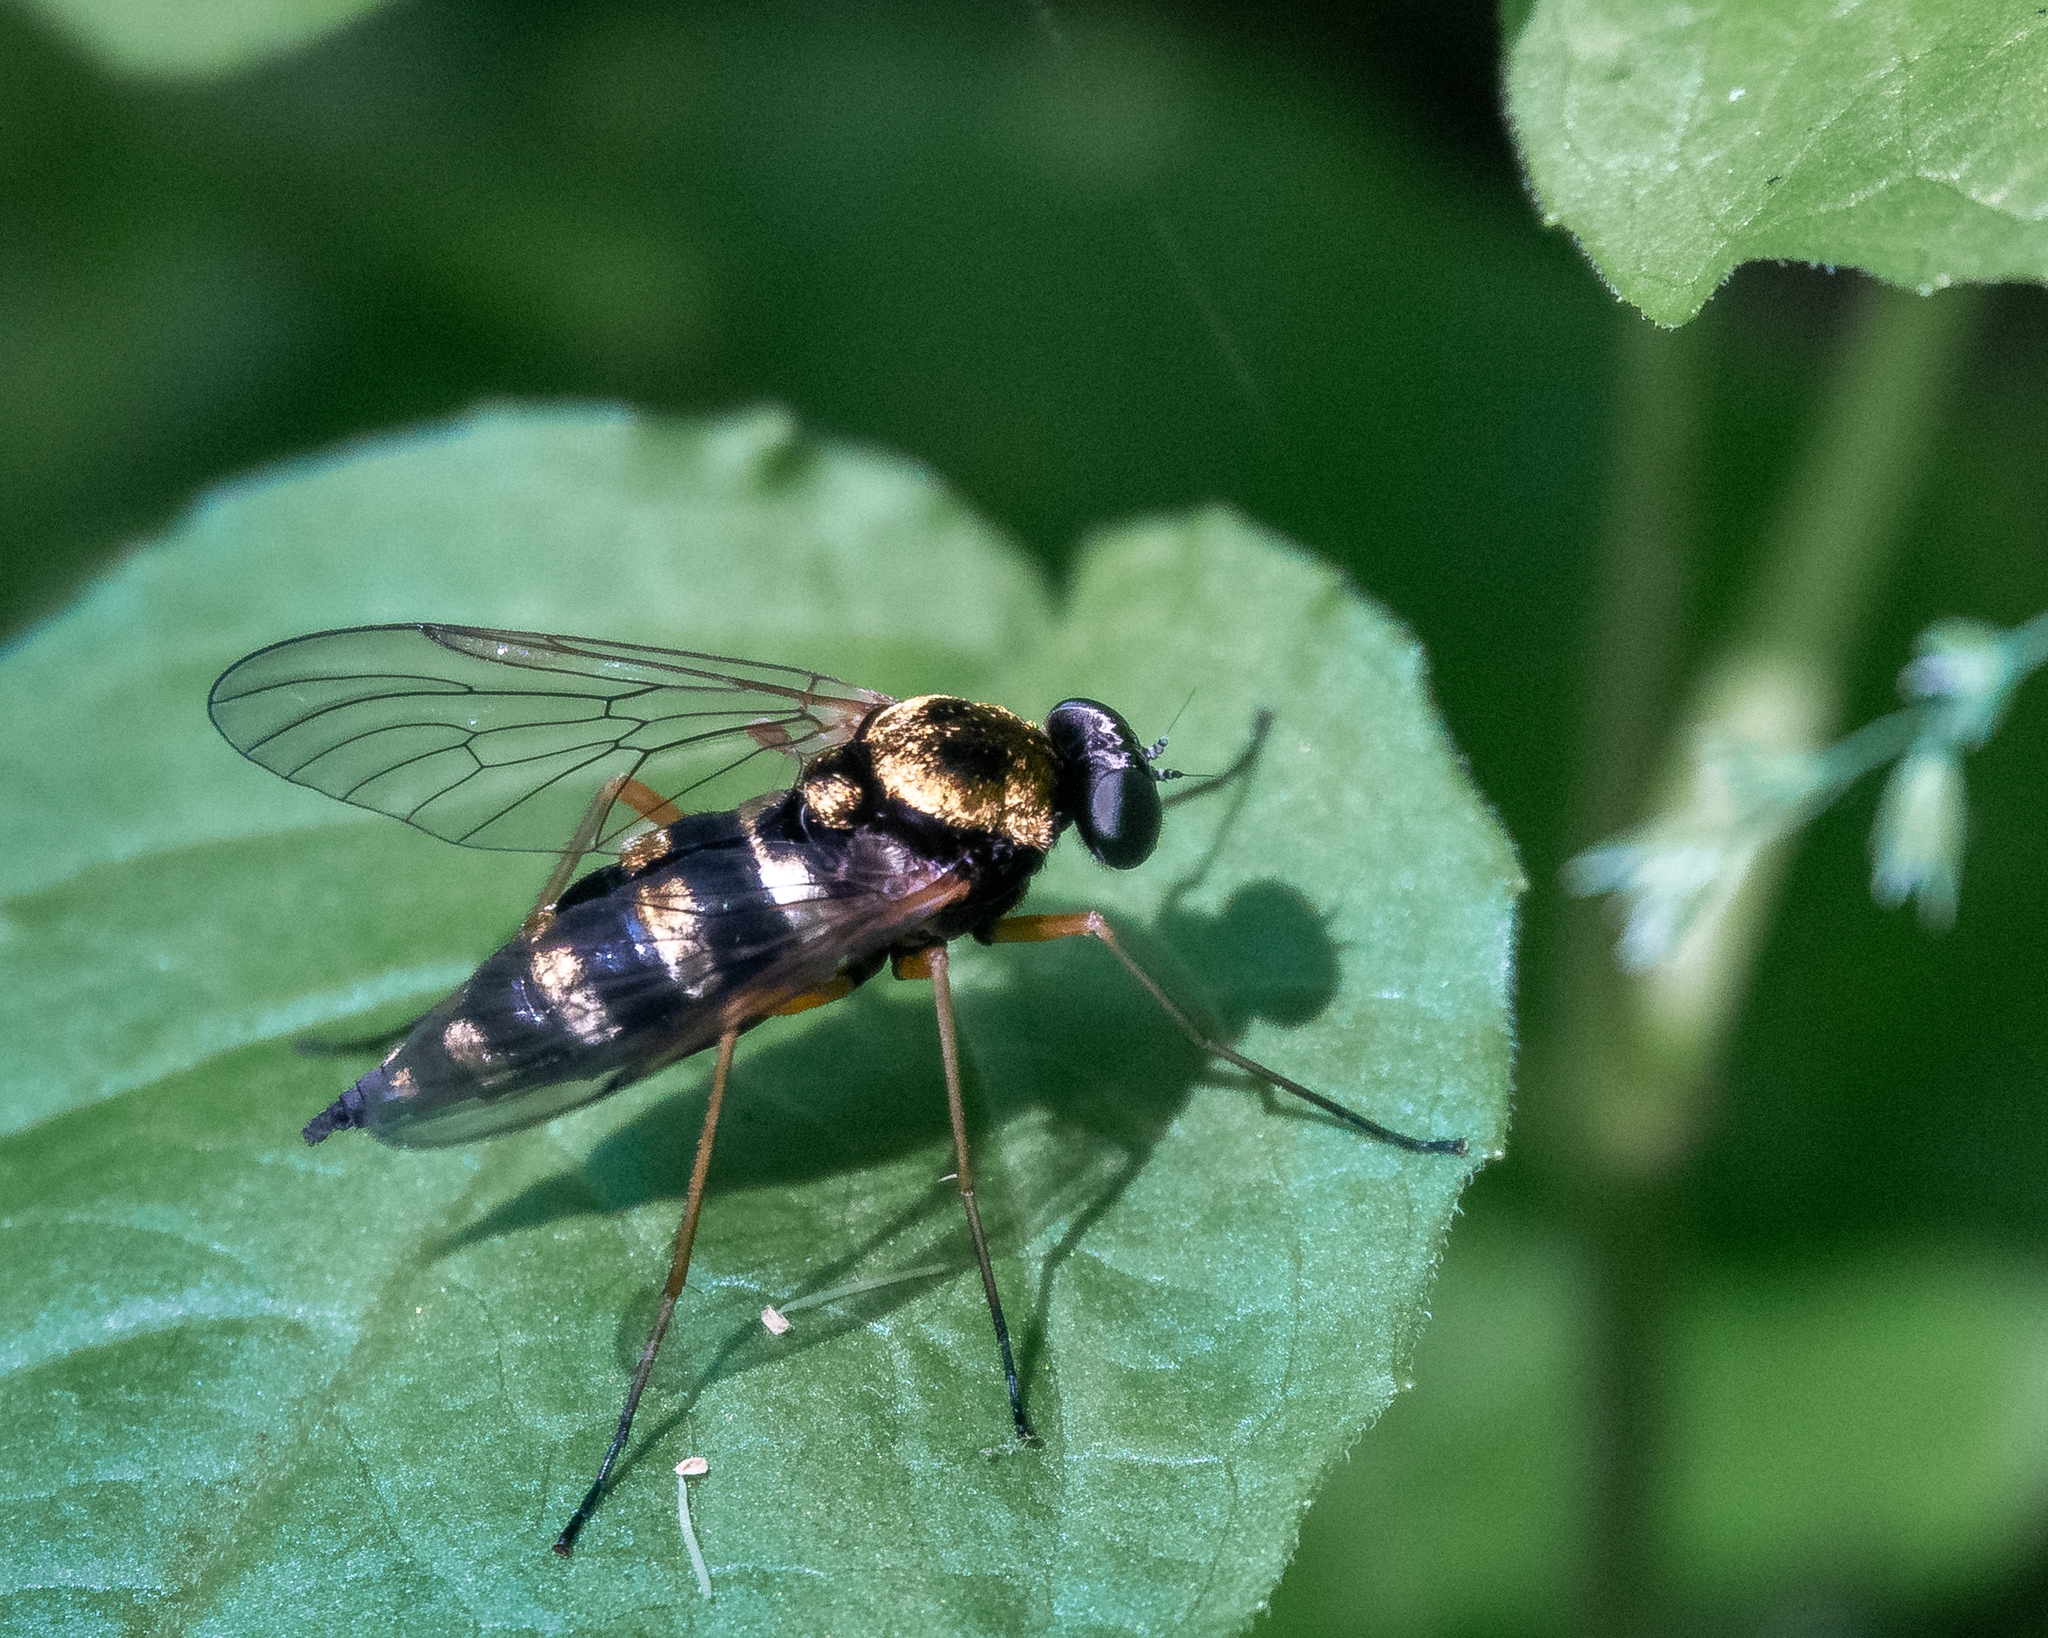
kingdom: Animalia
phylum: Arthropoda
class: Insecta
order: Diptera
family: Rhagionidae
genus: Chrysopilus
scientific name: Chrysopilus ornatus
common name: Ornate snipe fly
